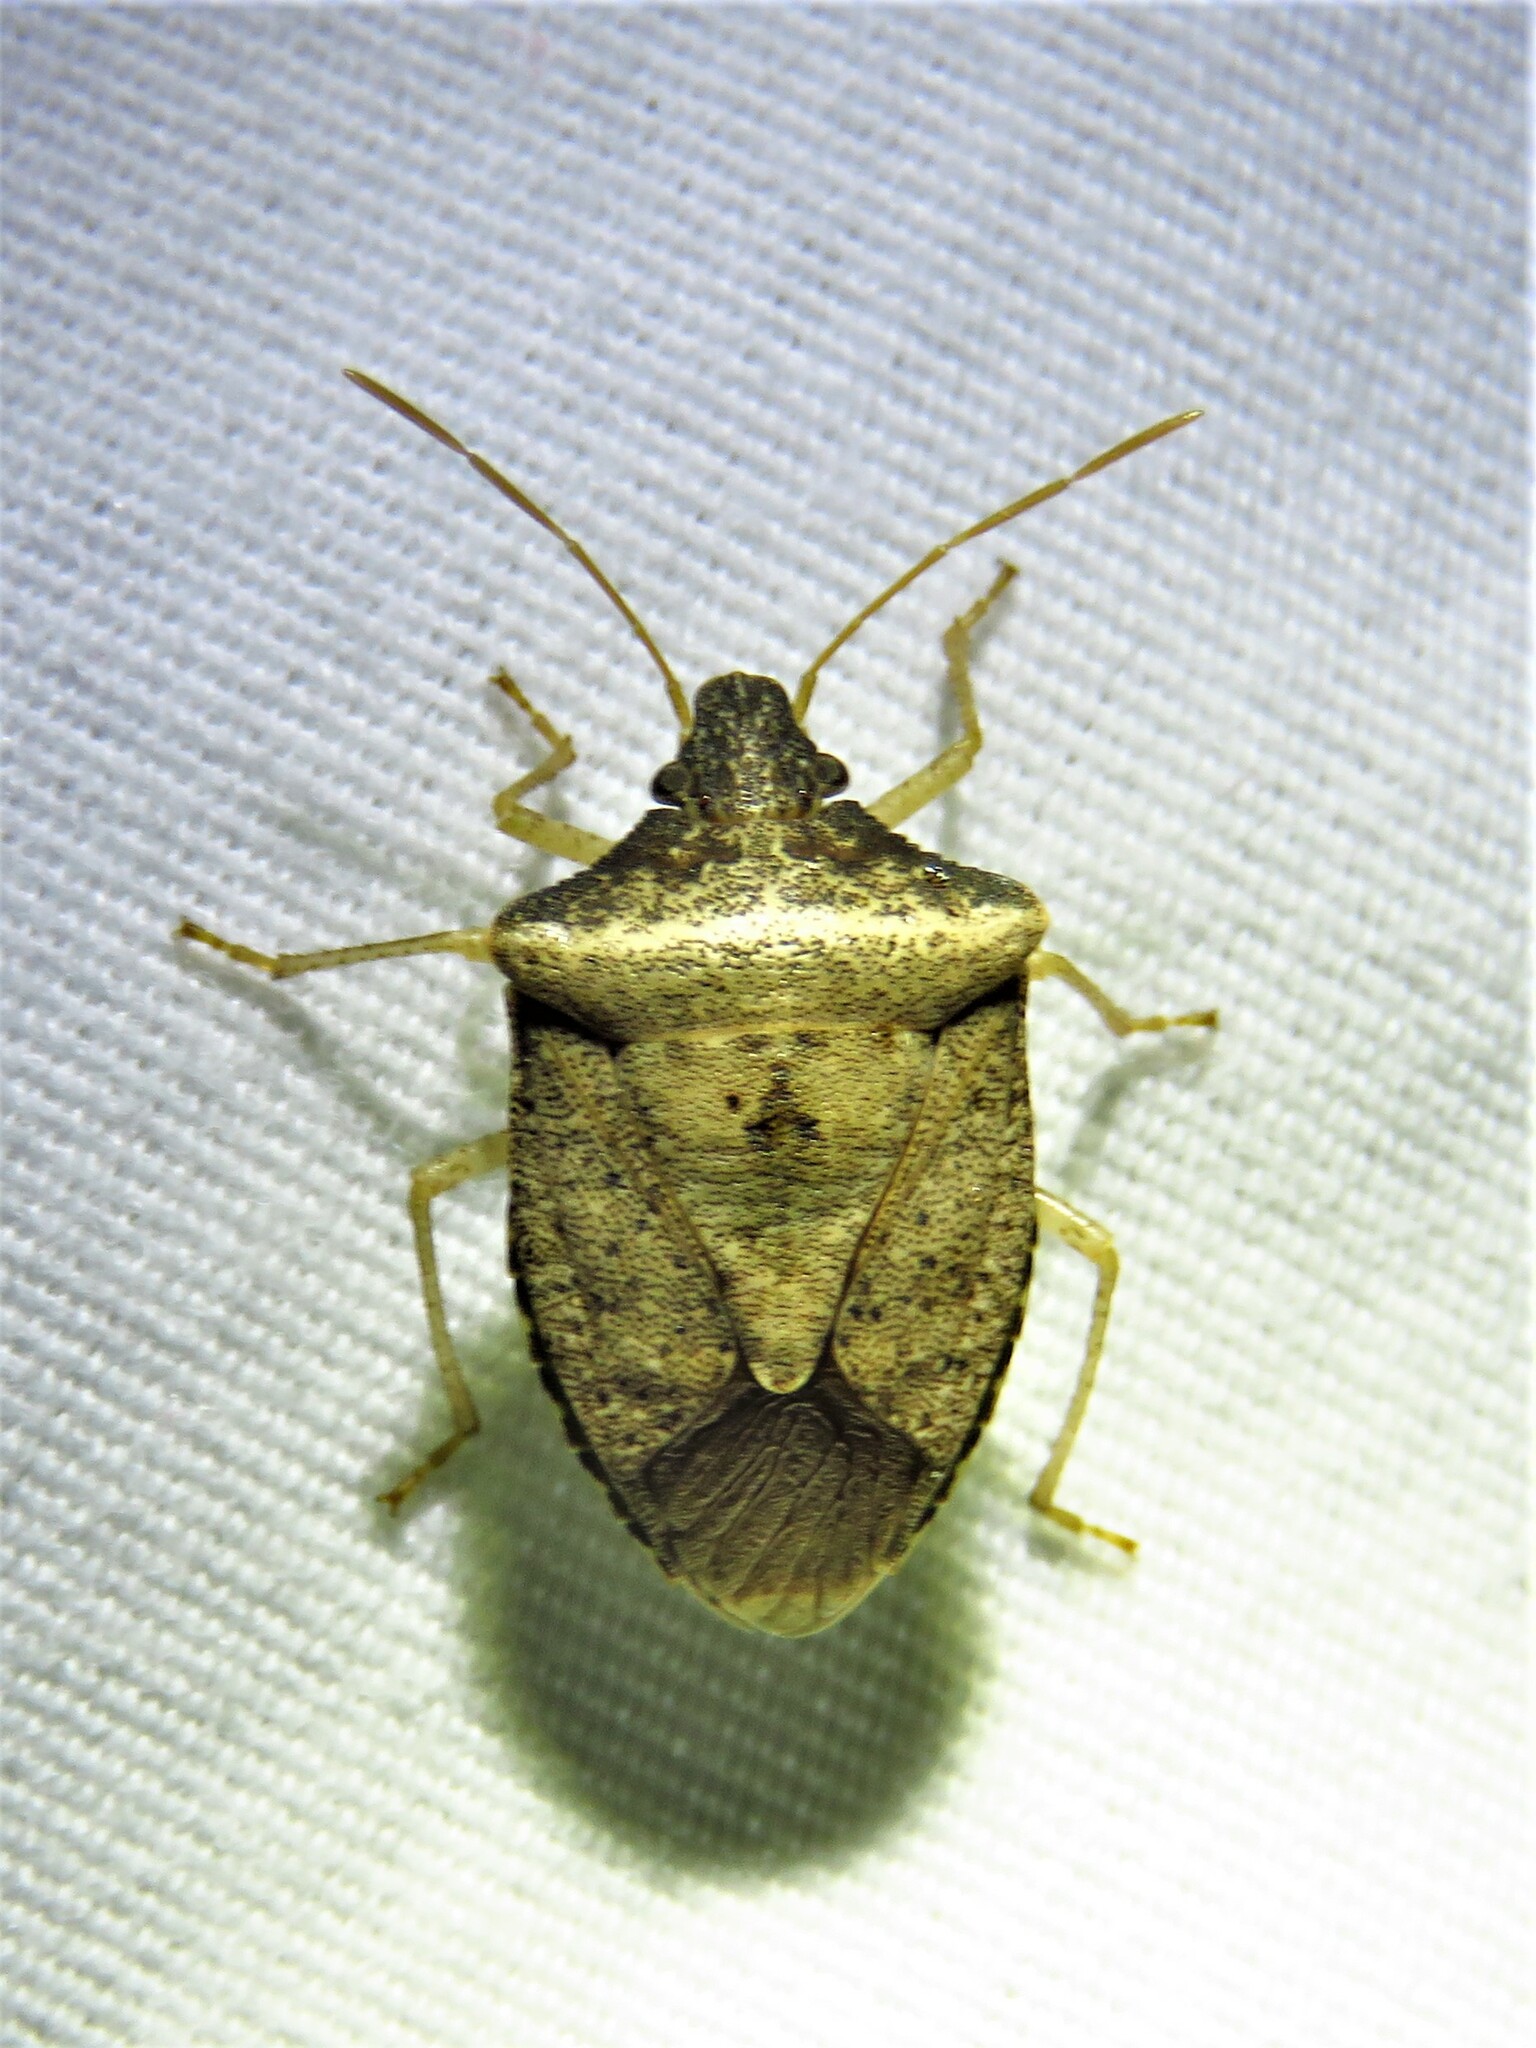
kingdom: Animalia
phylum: Arthropoda
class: Insecta
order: Hemiptera
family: Pentatomidae
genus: Euschistus
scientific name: Euschistus obscurus
